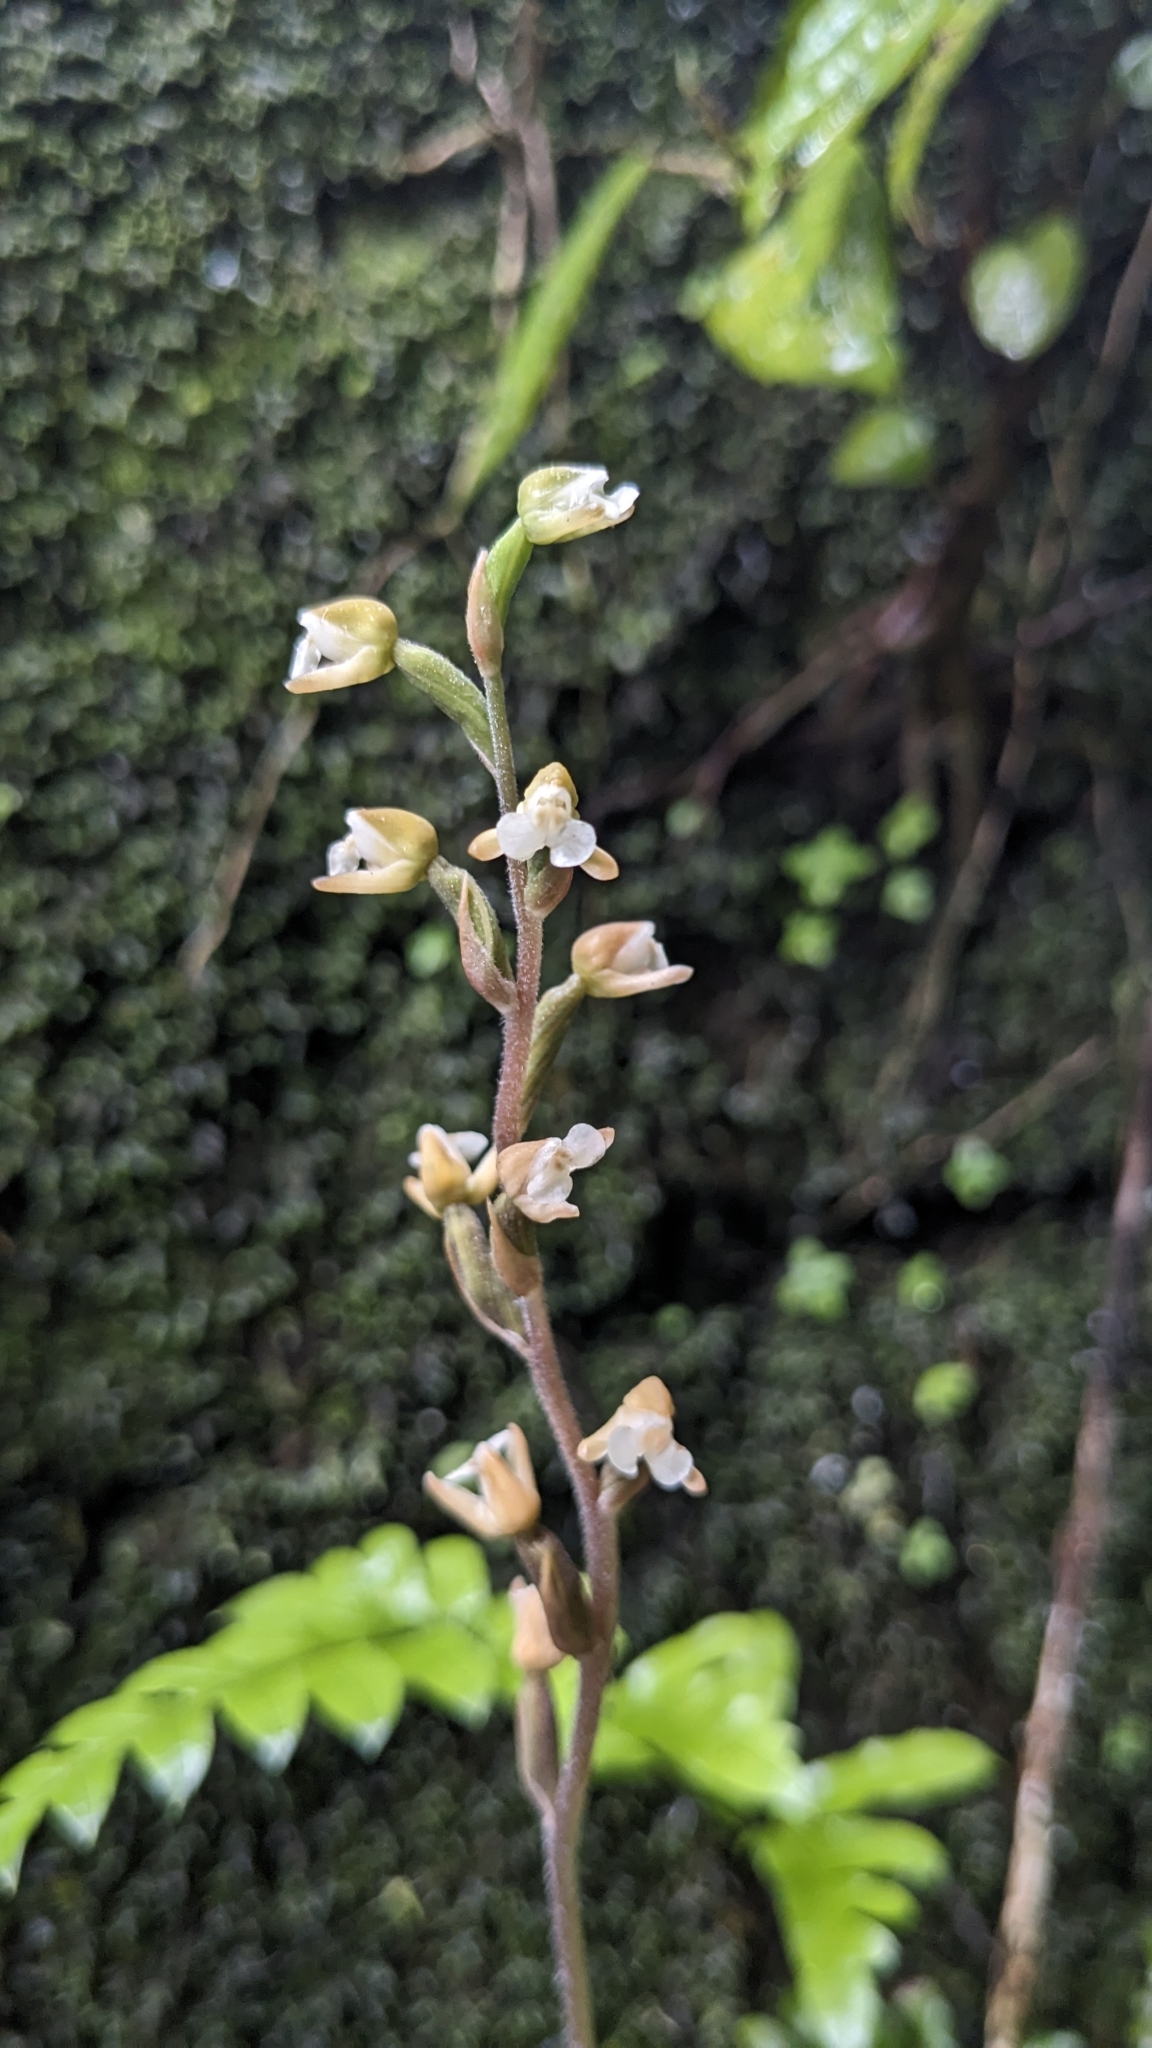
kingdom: Plantae
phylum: Tracheophyta
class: Liliopsida
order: Asparagales
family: Orchidaceae
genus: Zeuxine
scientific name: Zeuxine nervosa
